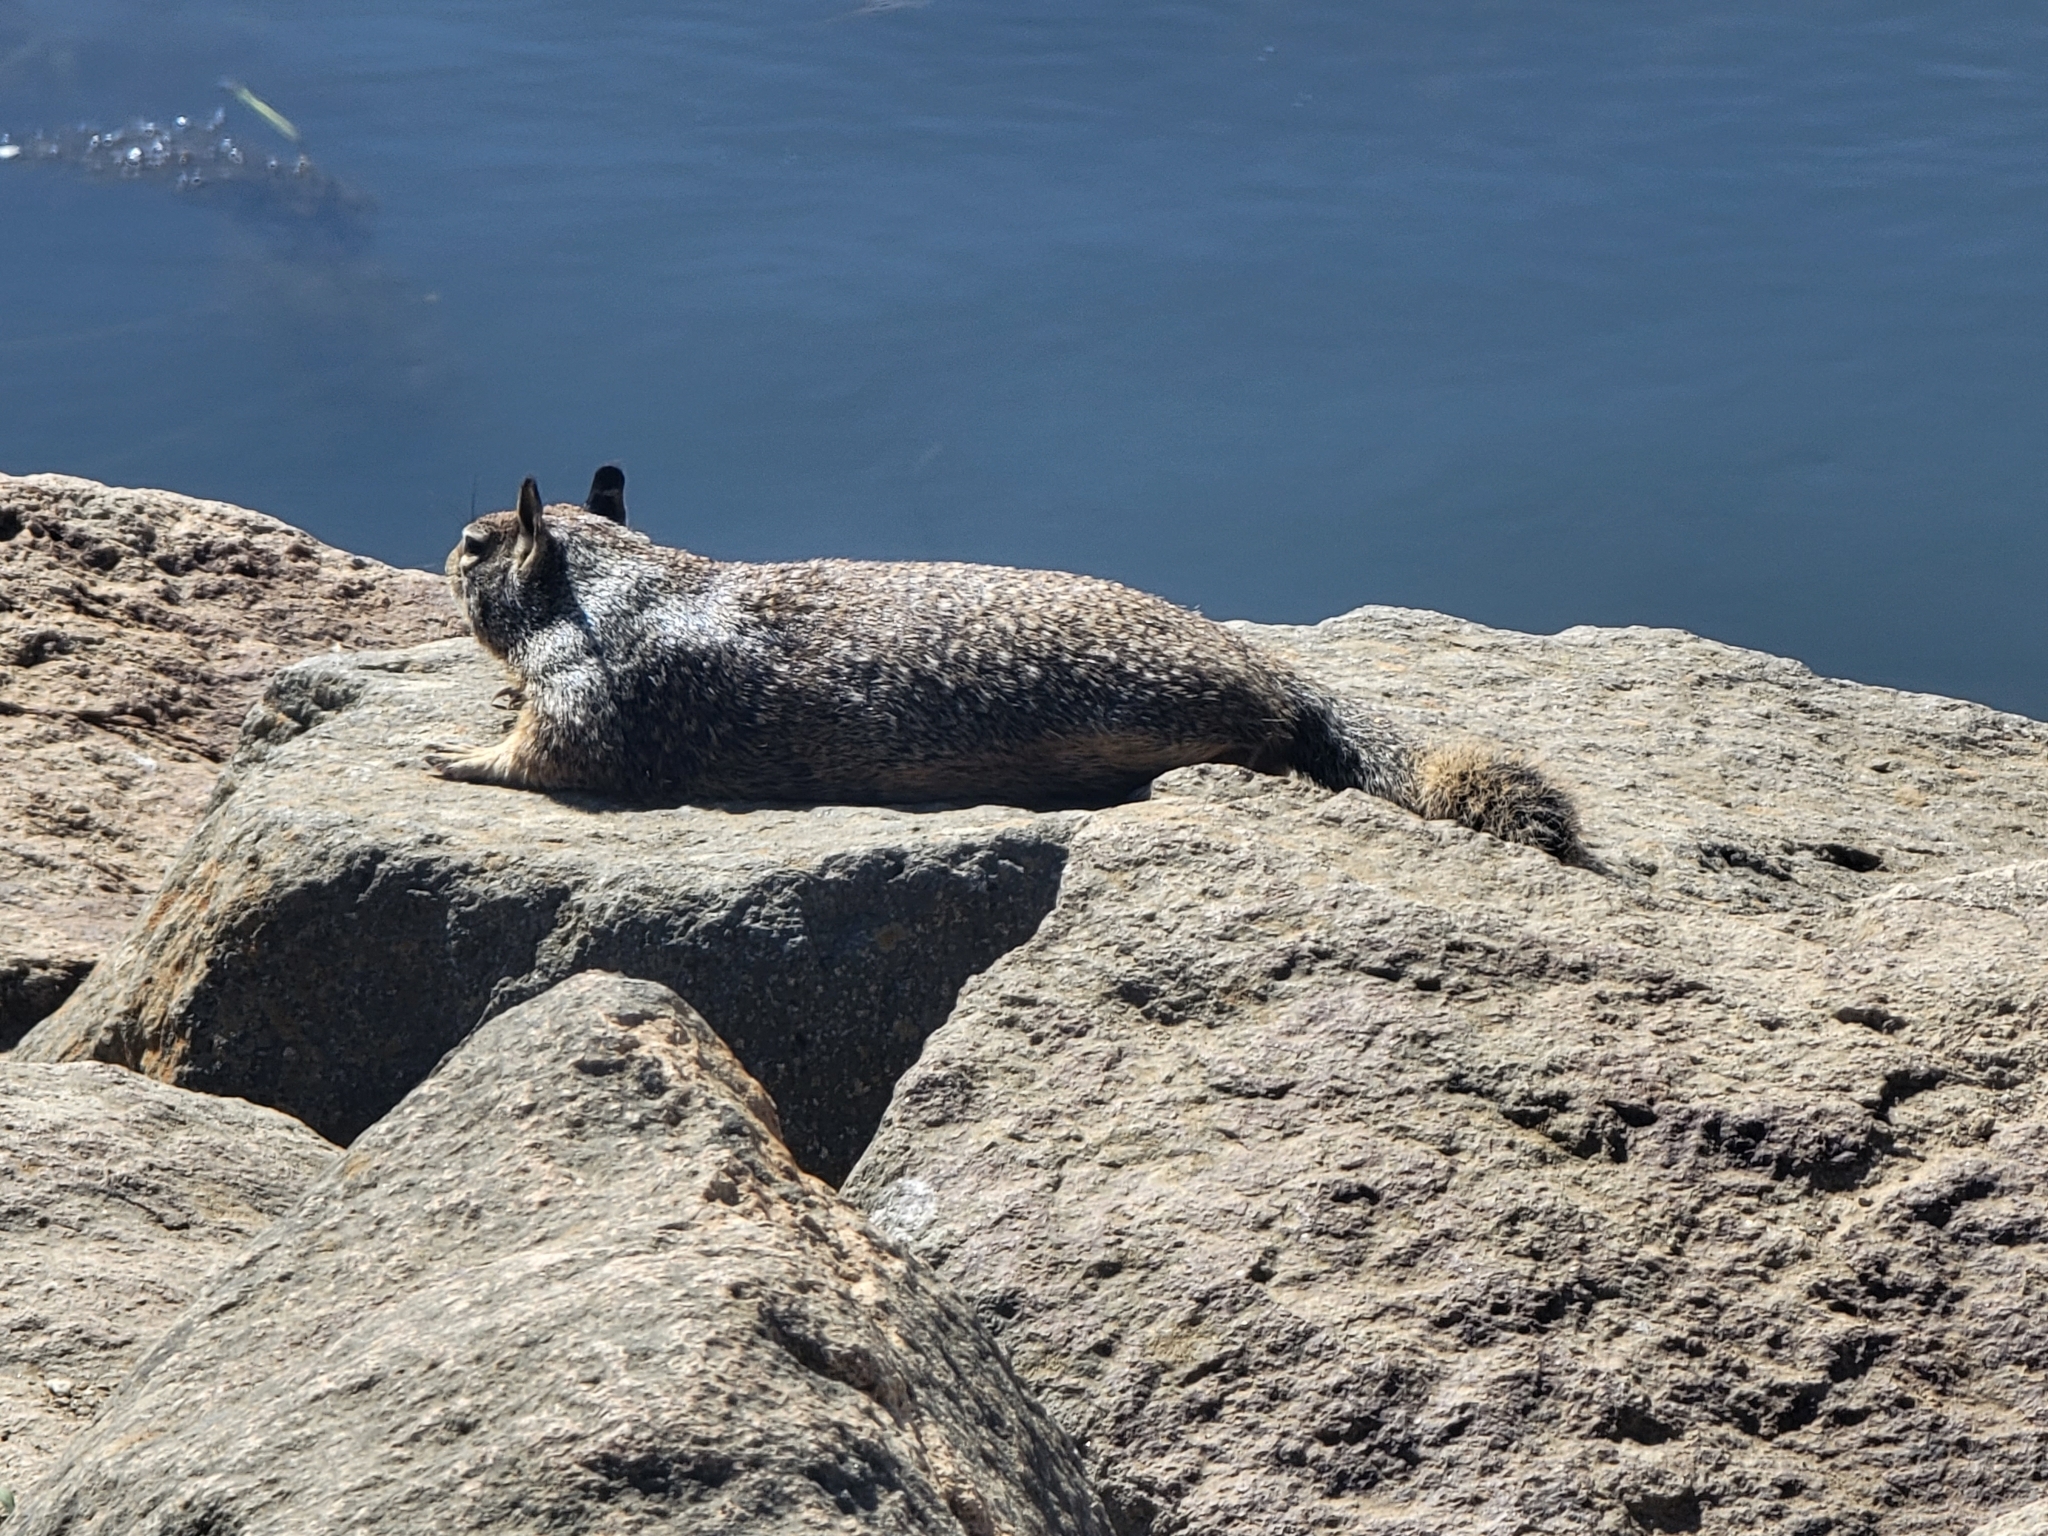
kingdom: Animalia
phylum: Chordata
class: Mammalia
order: Rodentia
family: Sciuridae
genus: Otospermophilus
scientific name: Otospermophilus beecheyi
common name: California ground squirrel
